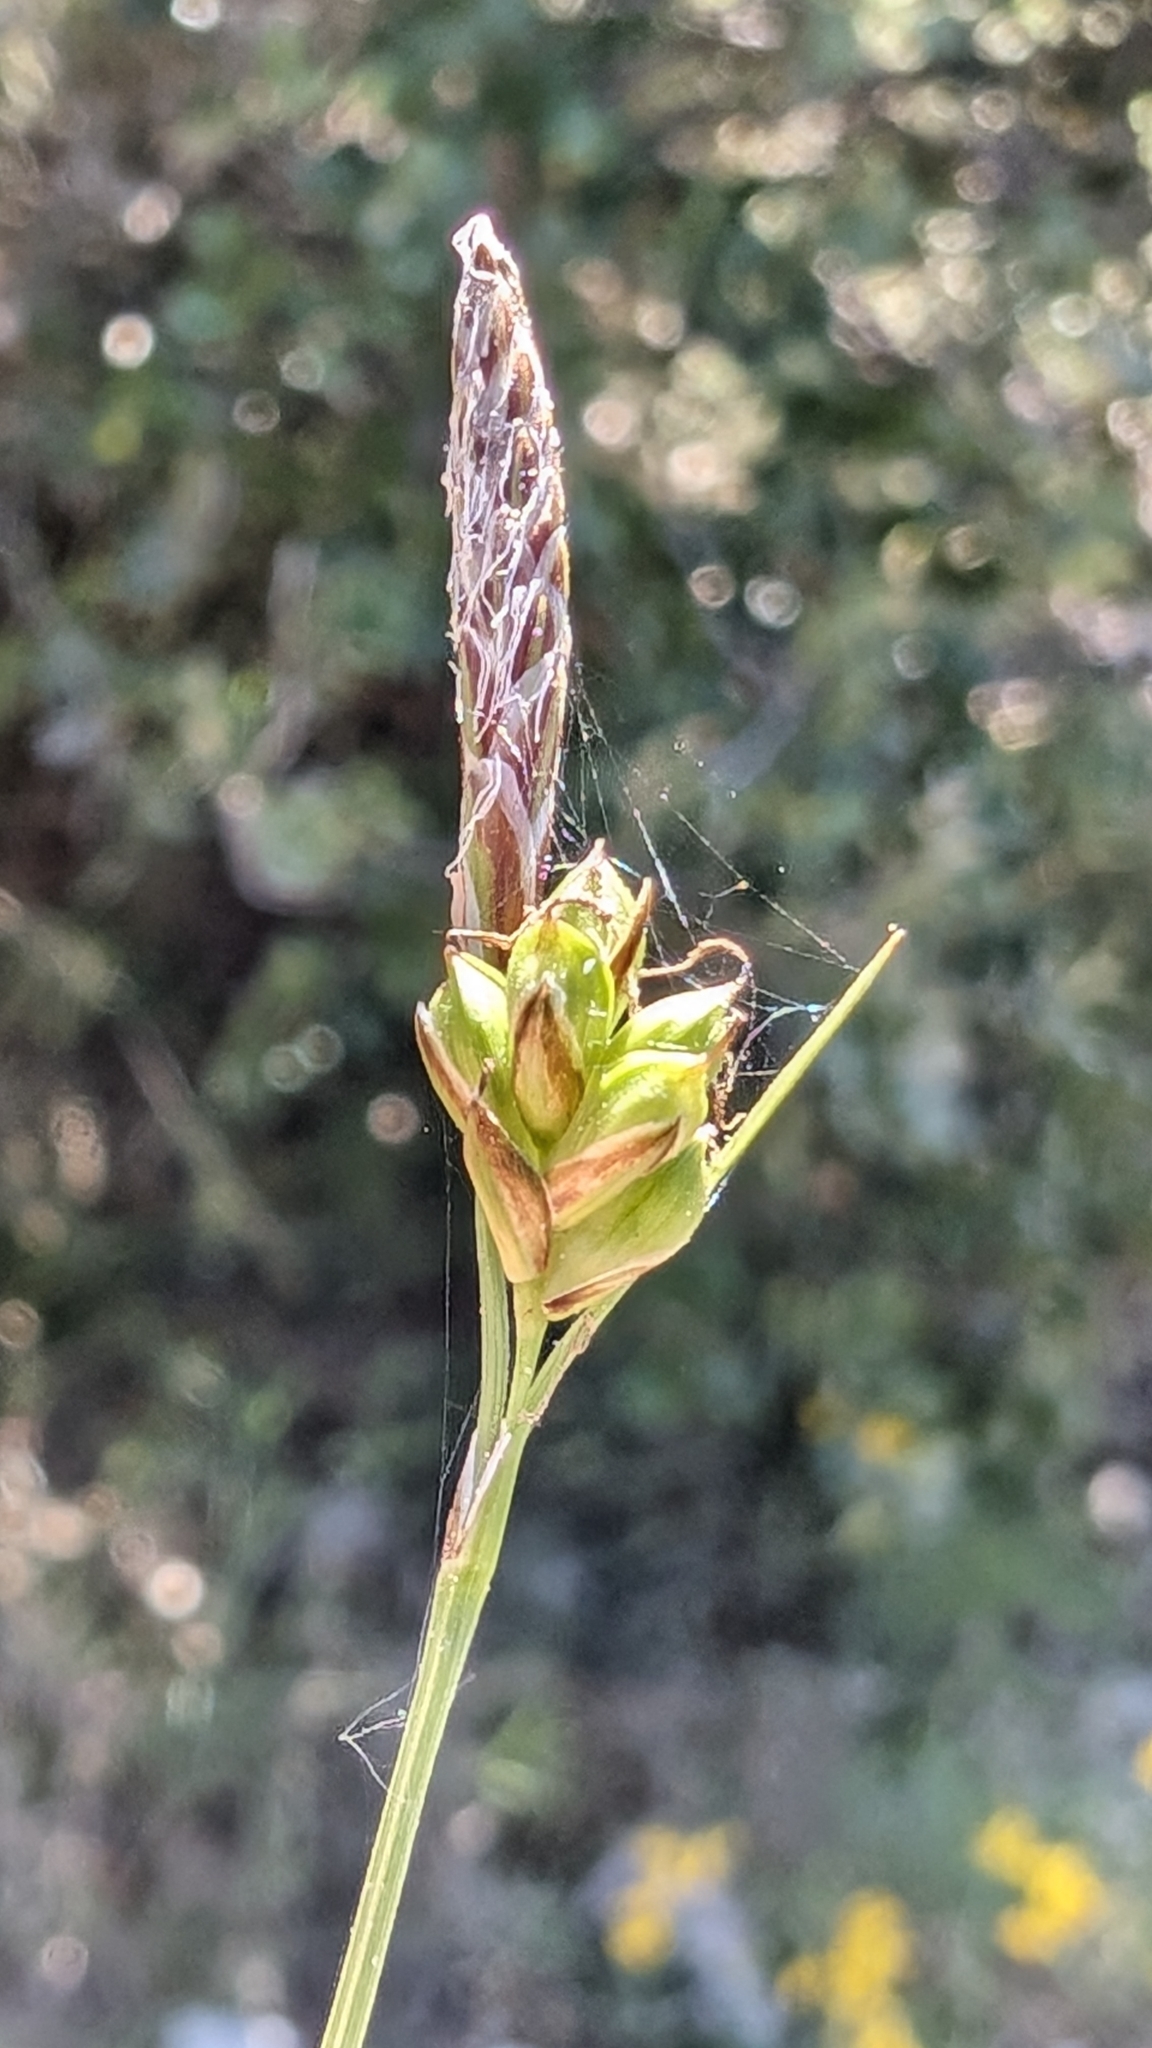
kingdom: Plantae
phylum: Tracheophyta
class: Liliopsida
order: Poales
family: Cyperaceae
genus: Carex
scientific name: Carex halleriana
